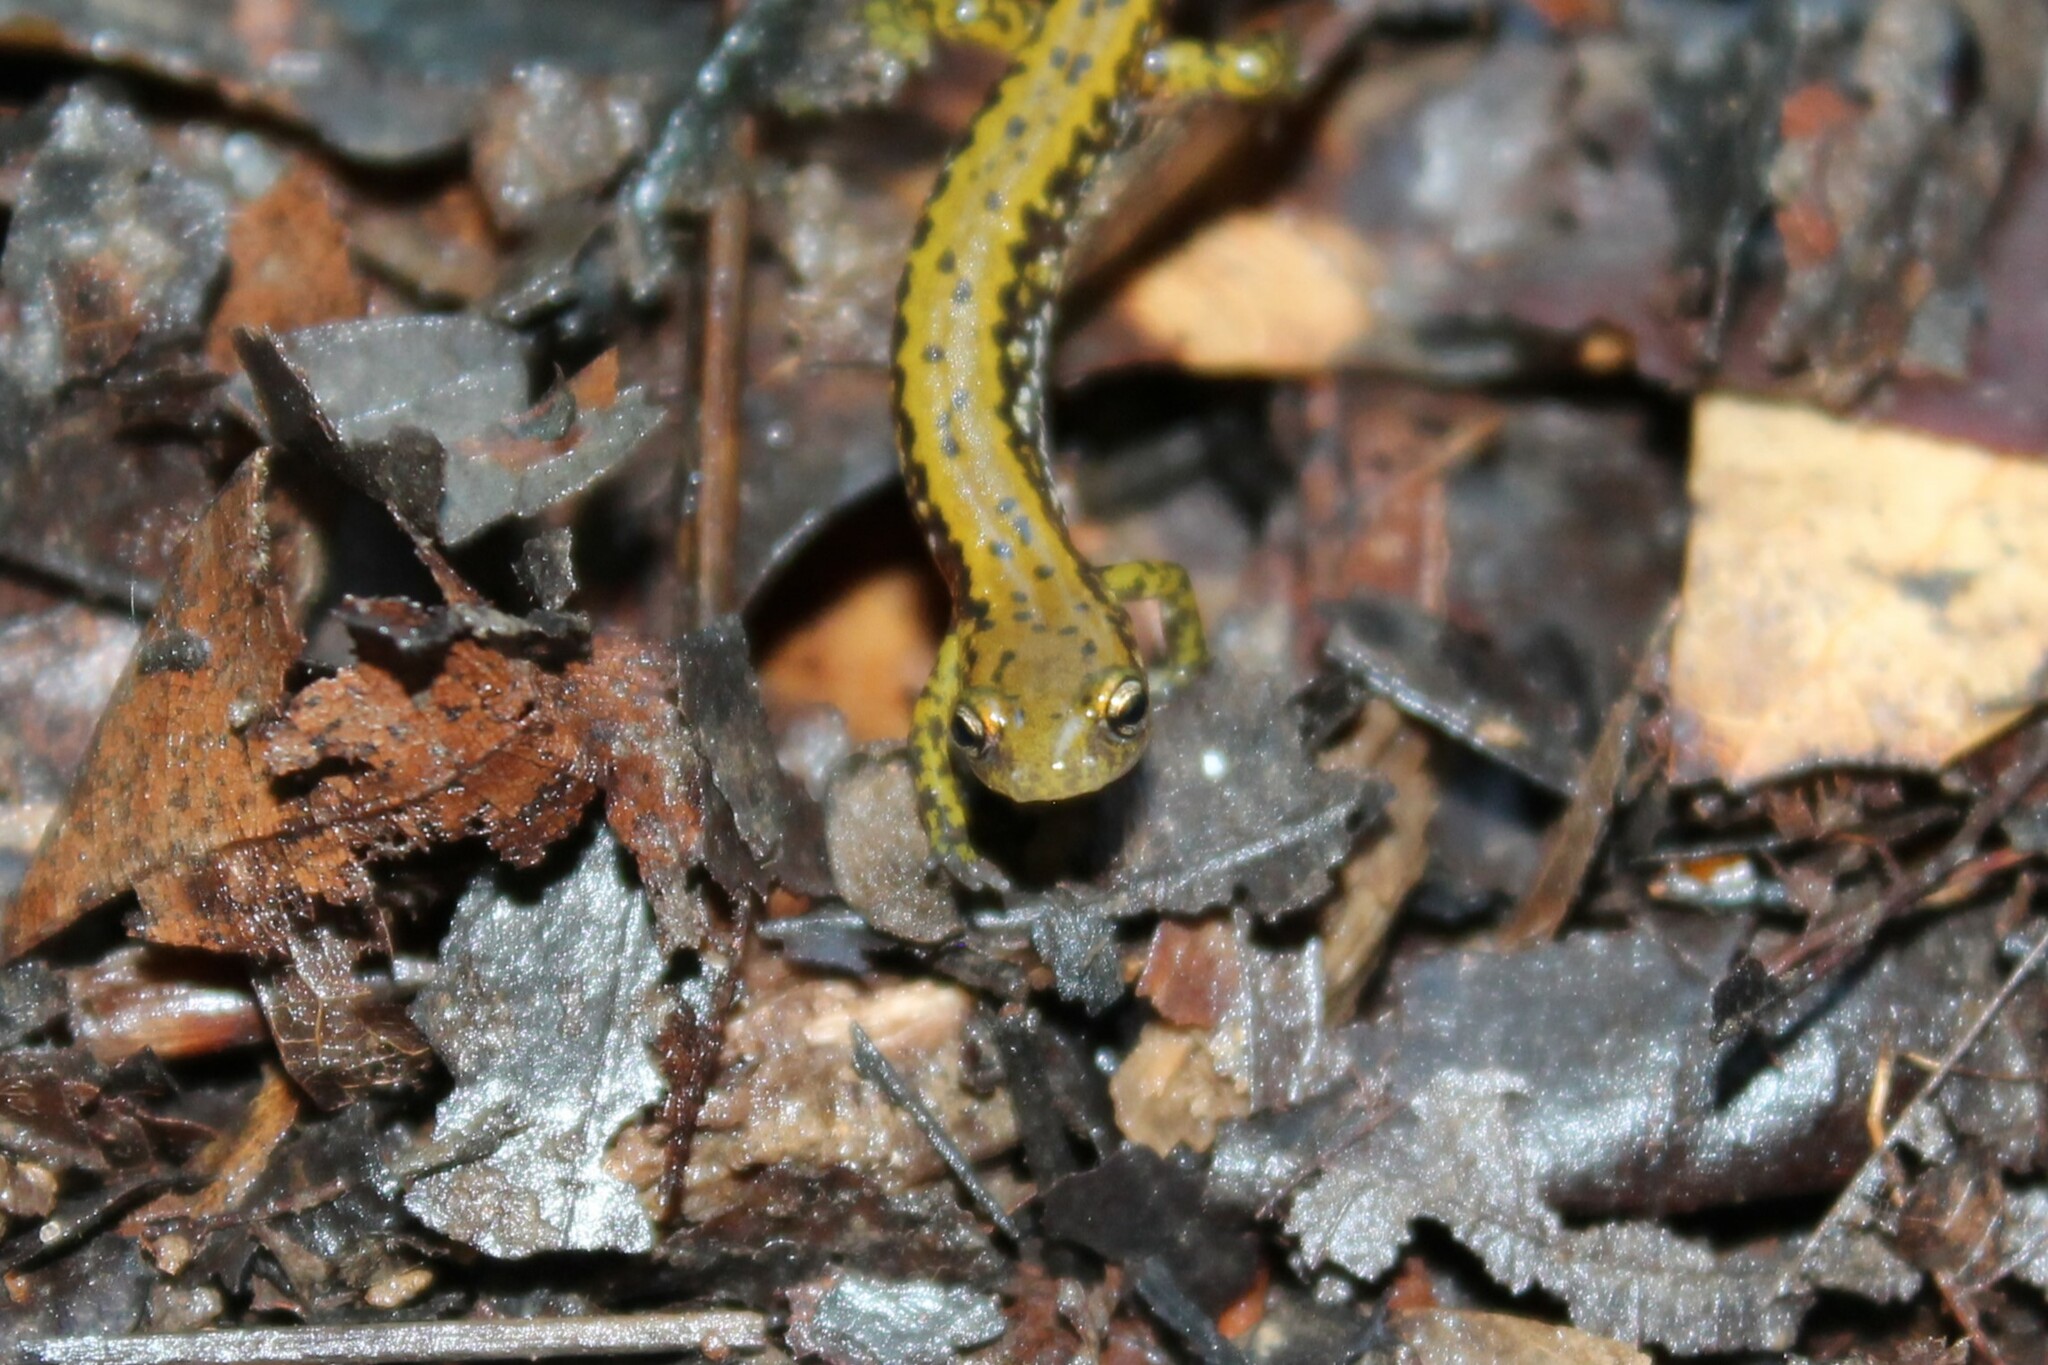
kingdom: Animalia
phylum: Chordata
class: Amphibia
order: Caudata
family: Plethodontidae
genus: Eurycea
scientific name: Eurycea longicauda
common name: Long-tailed salamander
